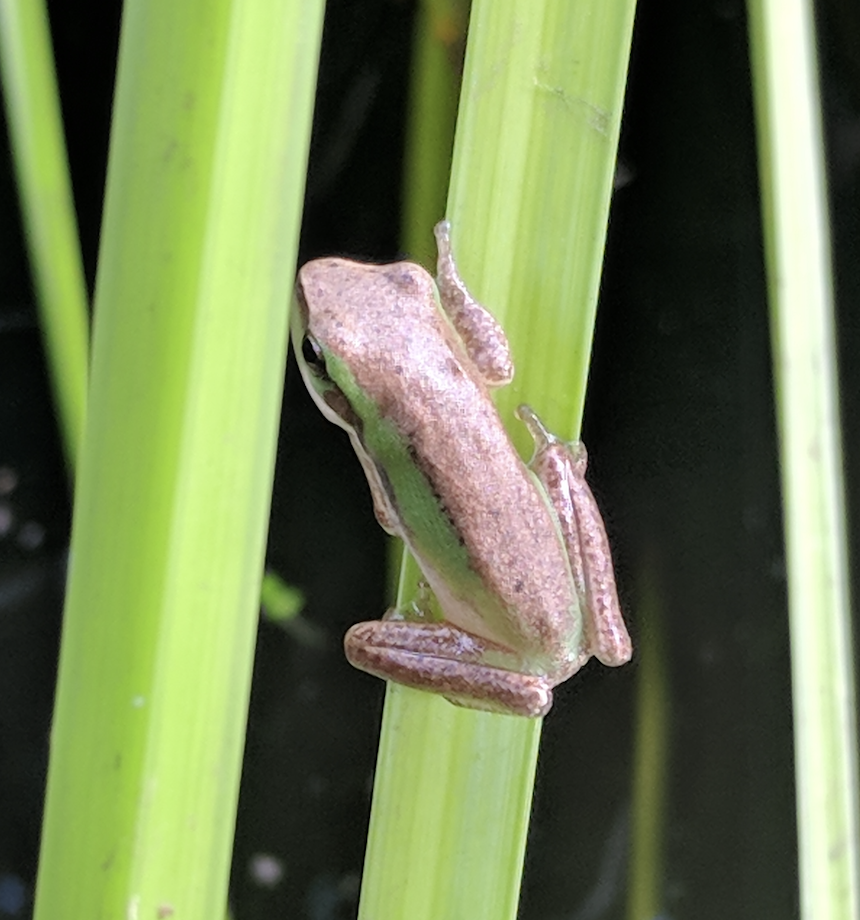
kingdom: Animalia
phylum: Chordata
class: Amphibia
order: Anura
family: Pelodryadidae
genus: Litoria
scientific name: Litoria fallax
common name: Eastern dwarf treefrog
